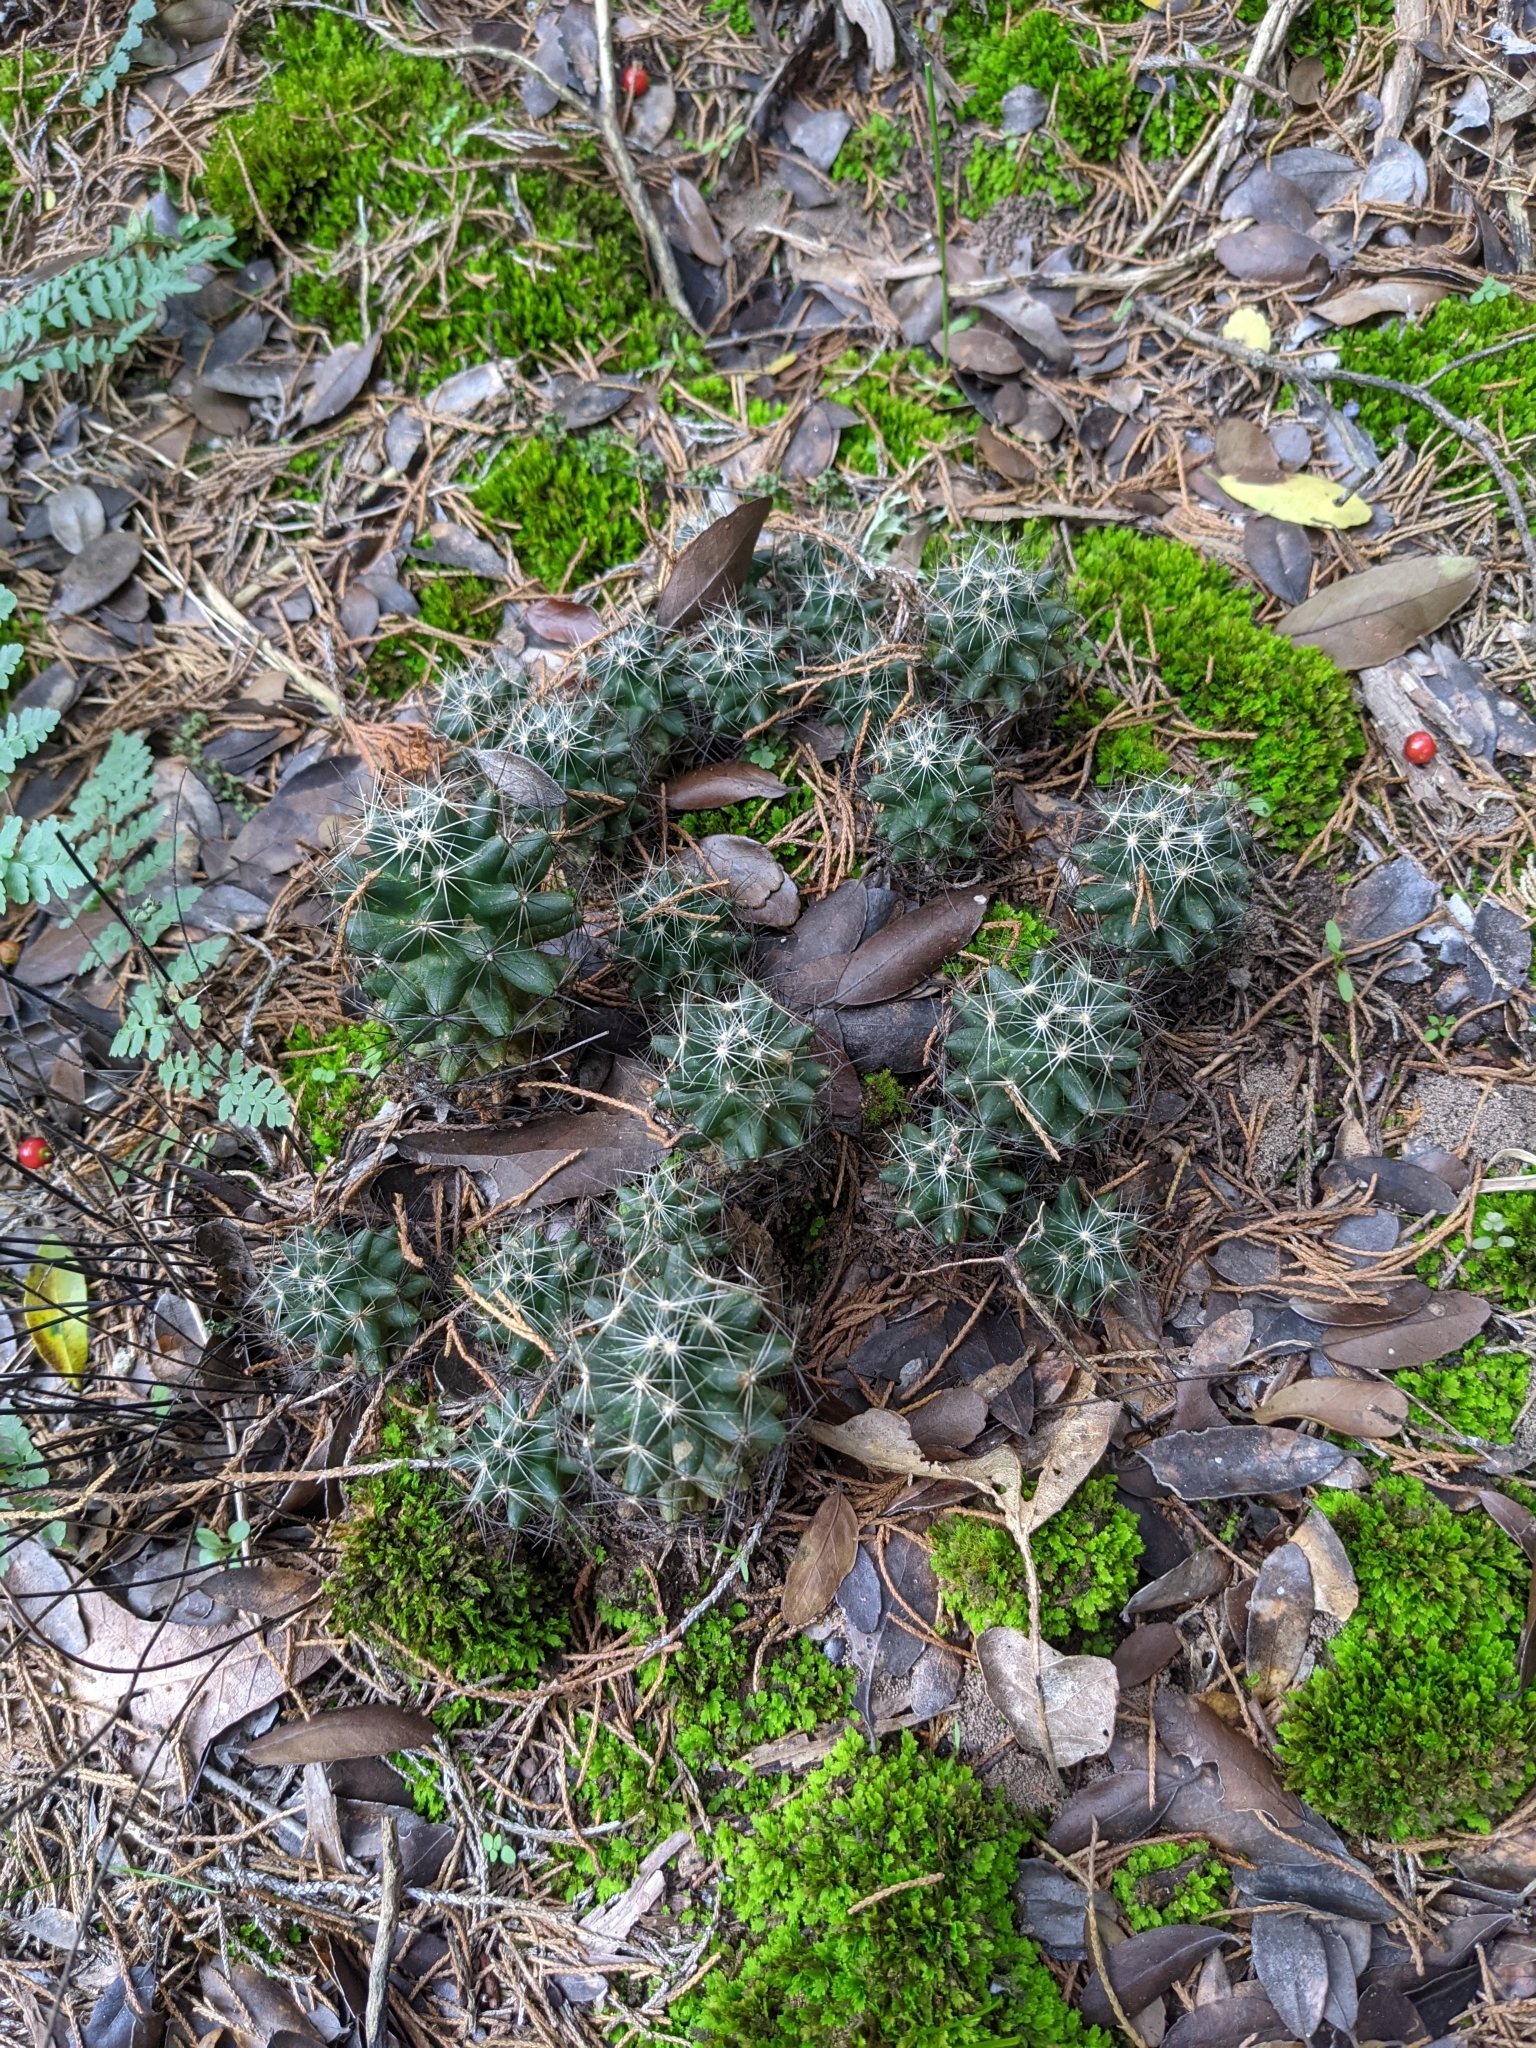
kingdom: Plantae
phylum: Tracheophyta
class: Magnoliopsida
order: Caryophyllales
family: Cactaceae
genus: Pelecyphora
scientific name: Pelecyphora missouriensis
